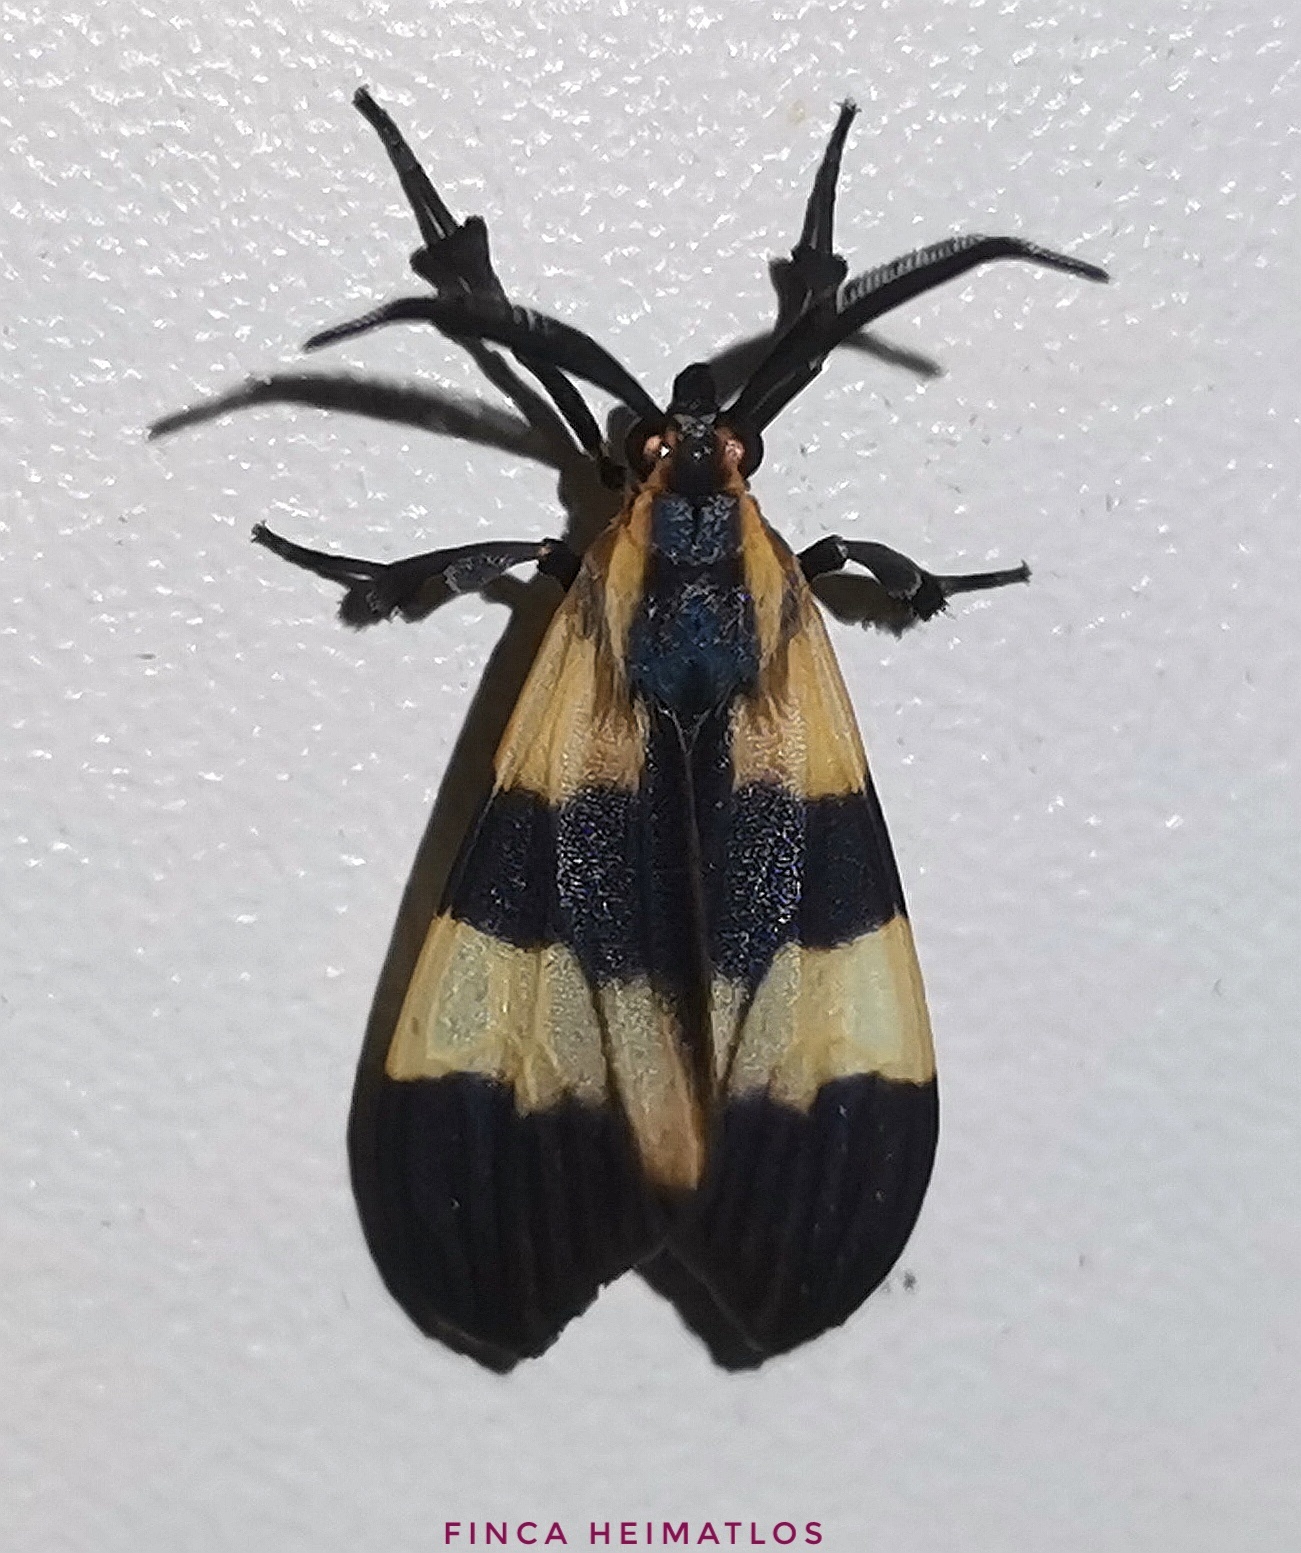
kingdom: Animalia
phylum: Arthropoda
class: Insecta
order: Lepidoptera
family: Erebidae
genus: Correbidia
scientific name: Correbidia assimilis
